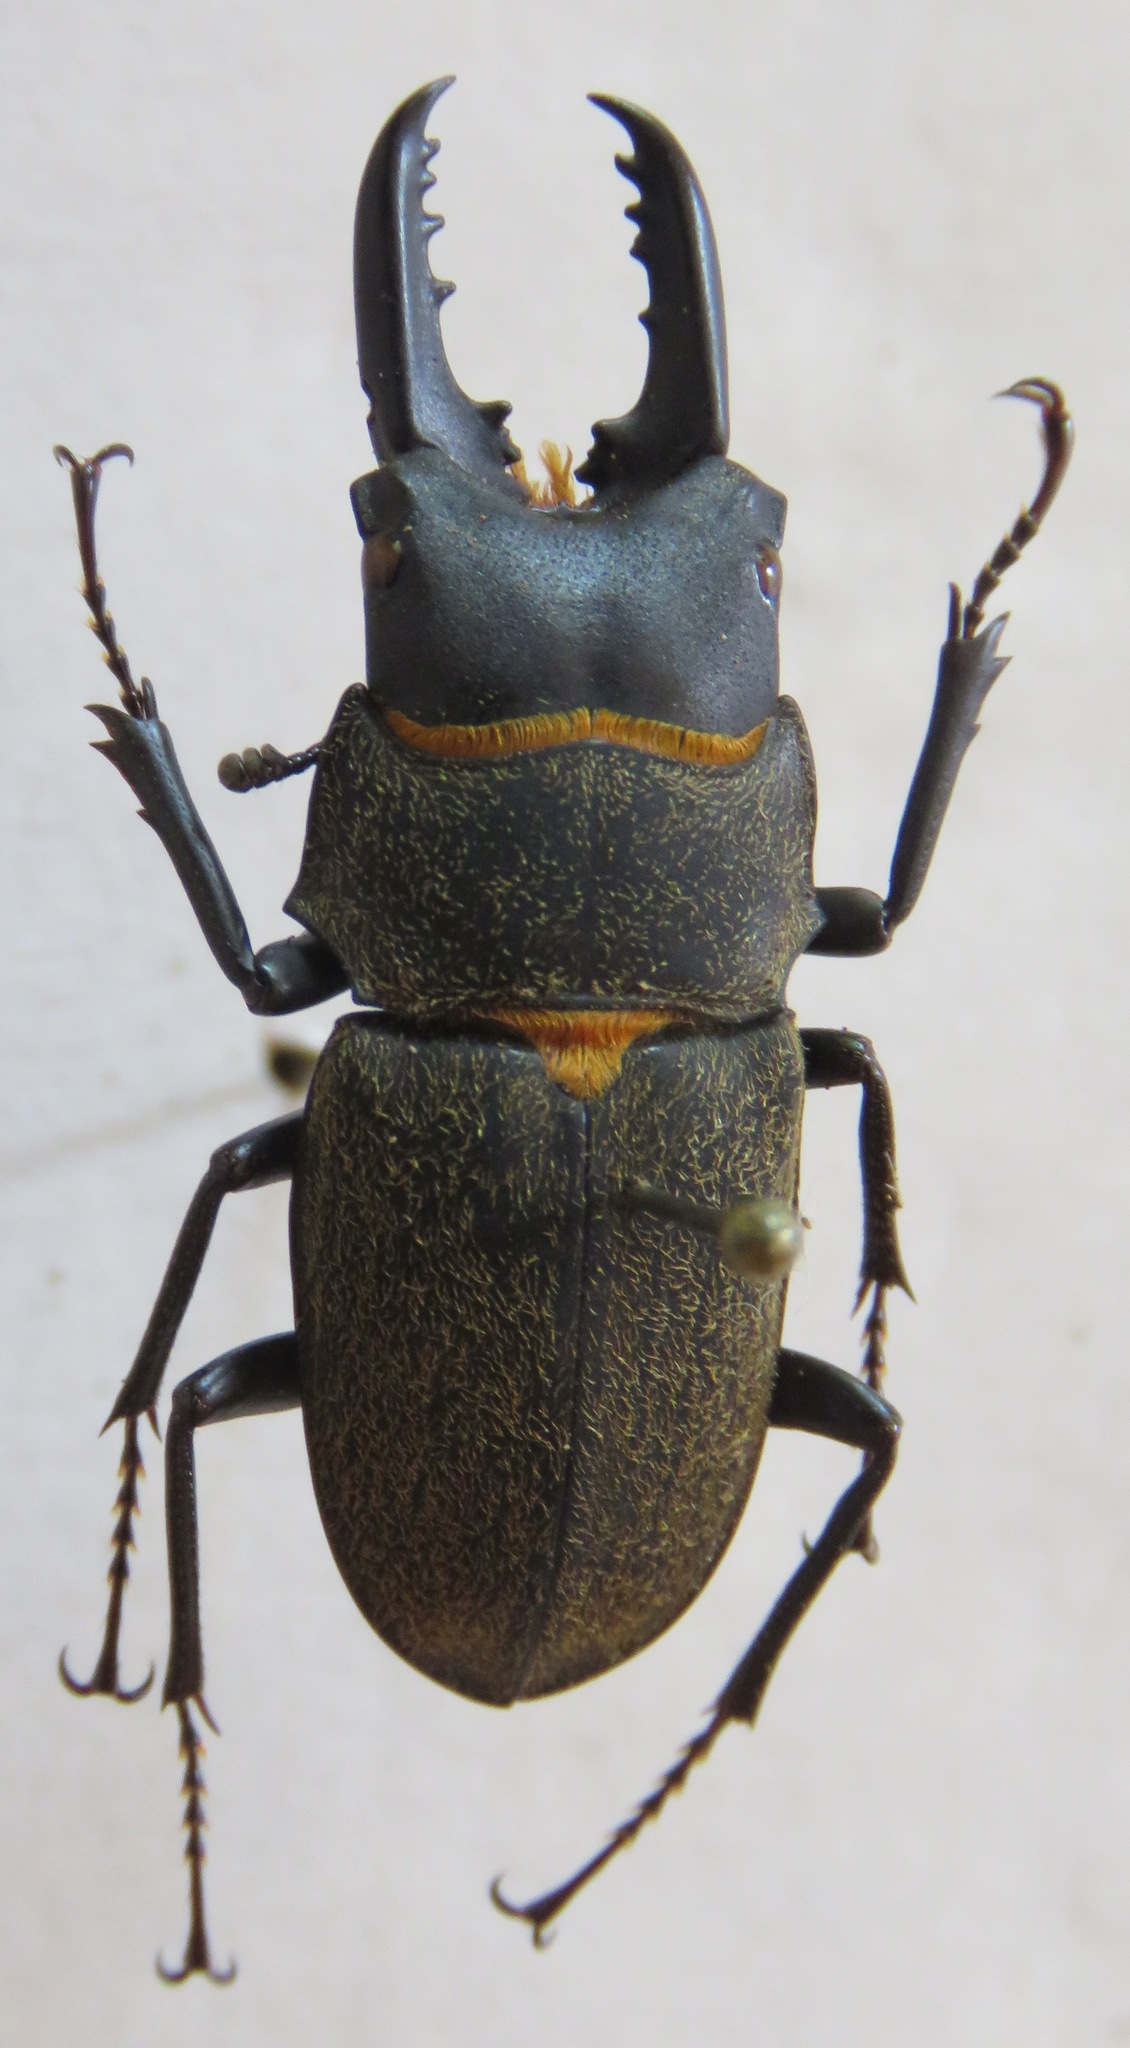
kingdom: Animalia
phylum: Arthropoda
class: Insecta
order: Coleoptera
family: Lucanidae
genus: Leptinopterus
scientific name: Leptinopterus fryi
